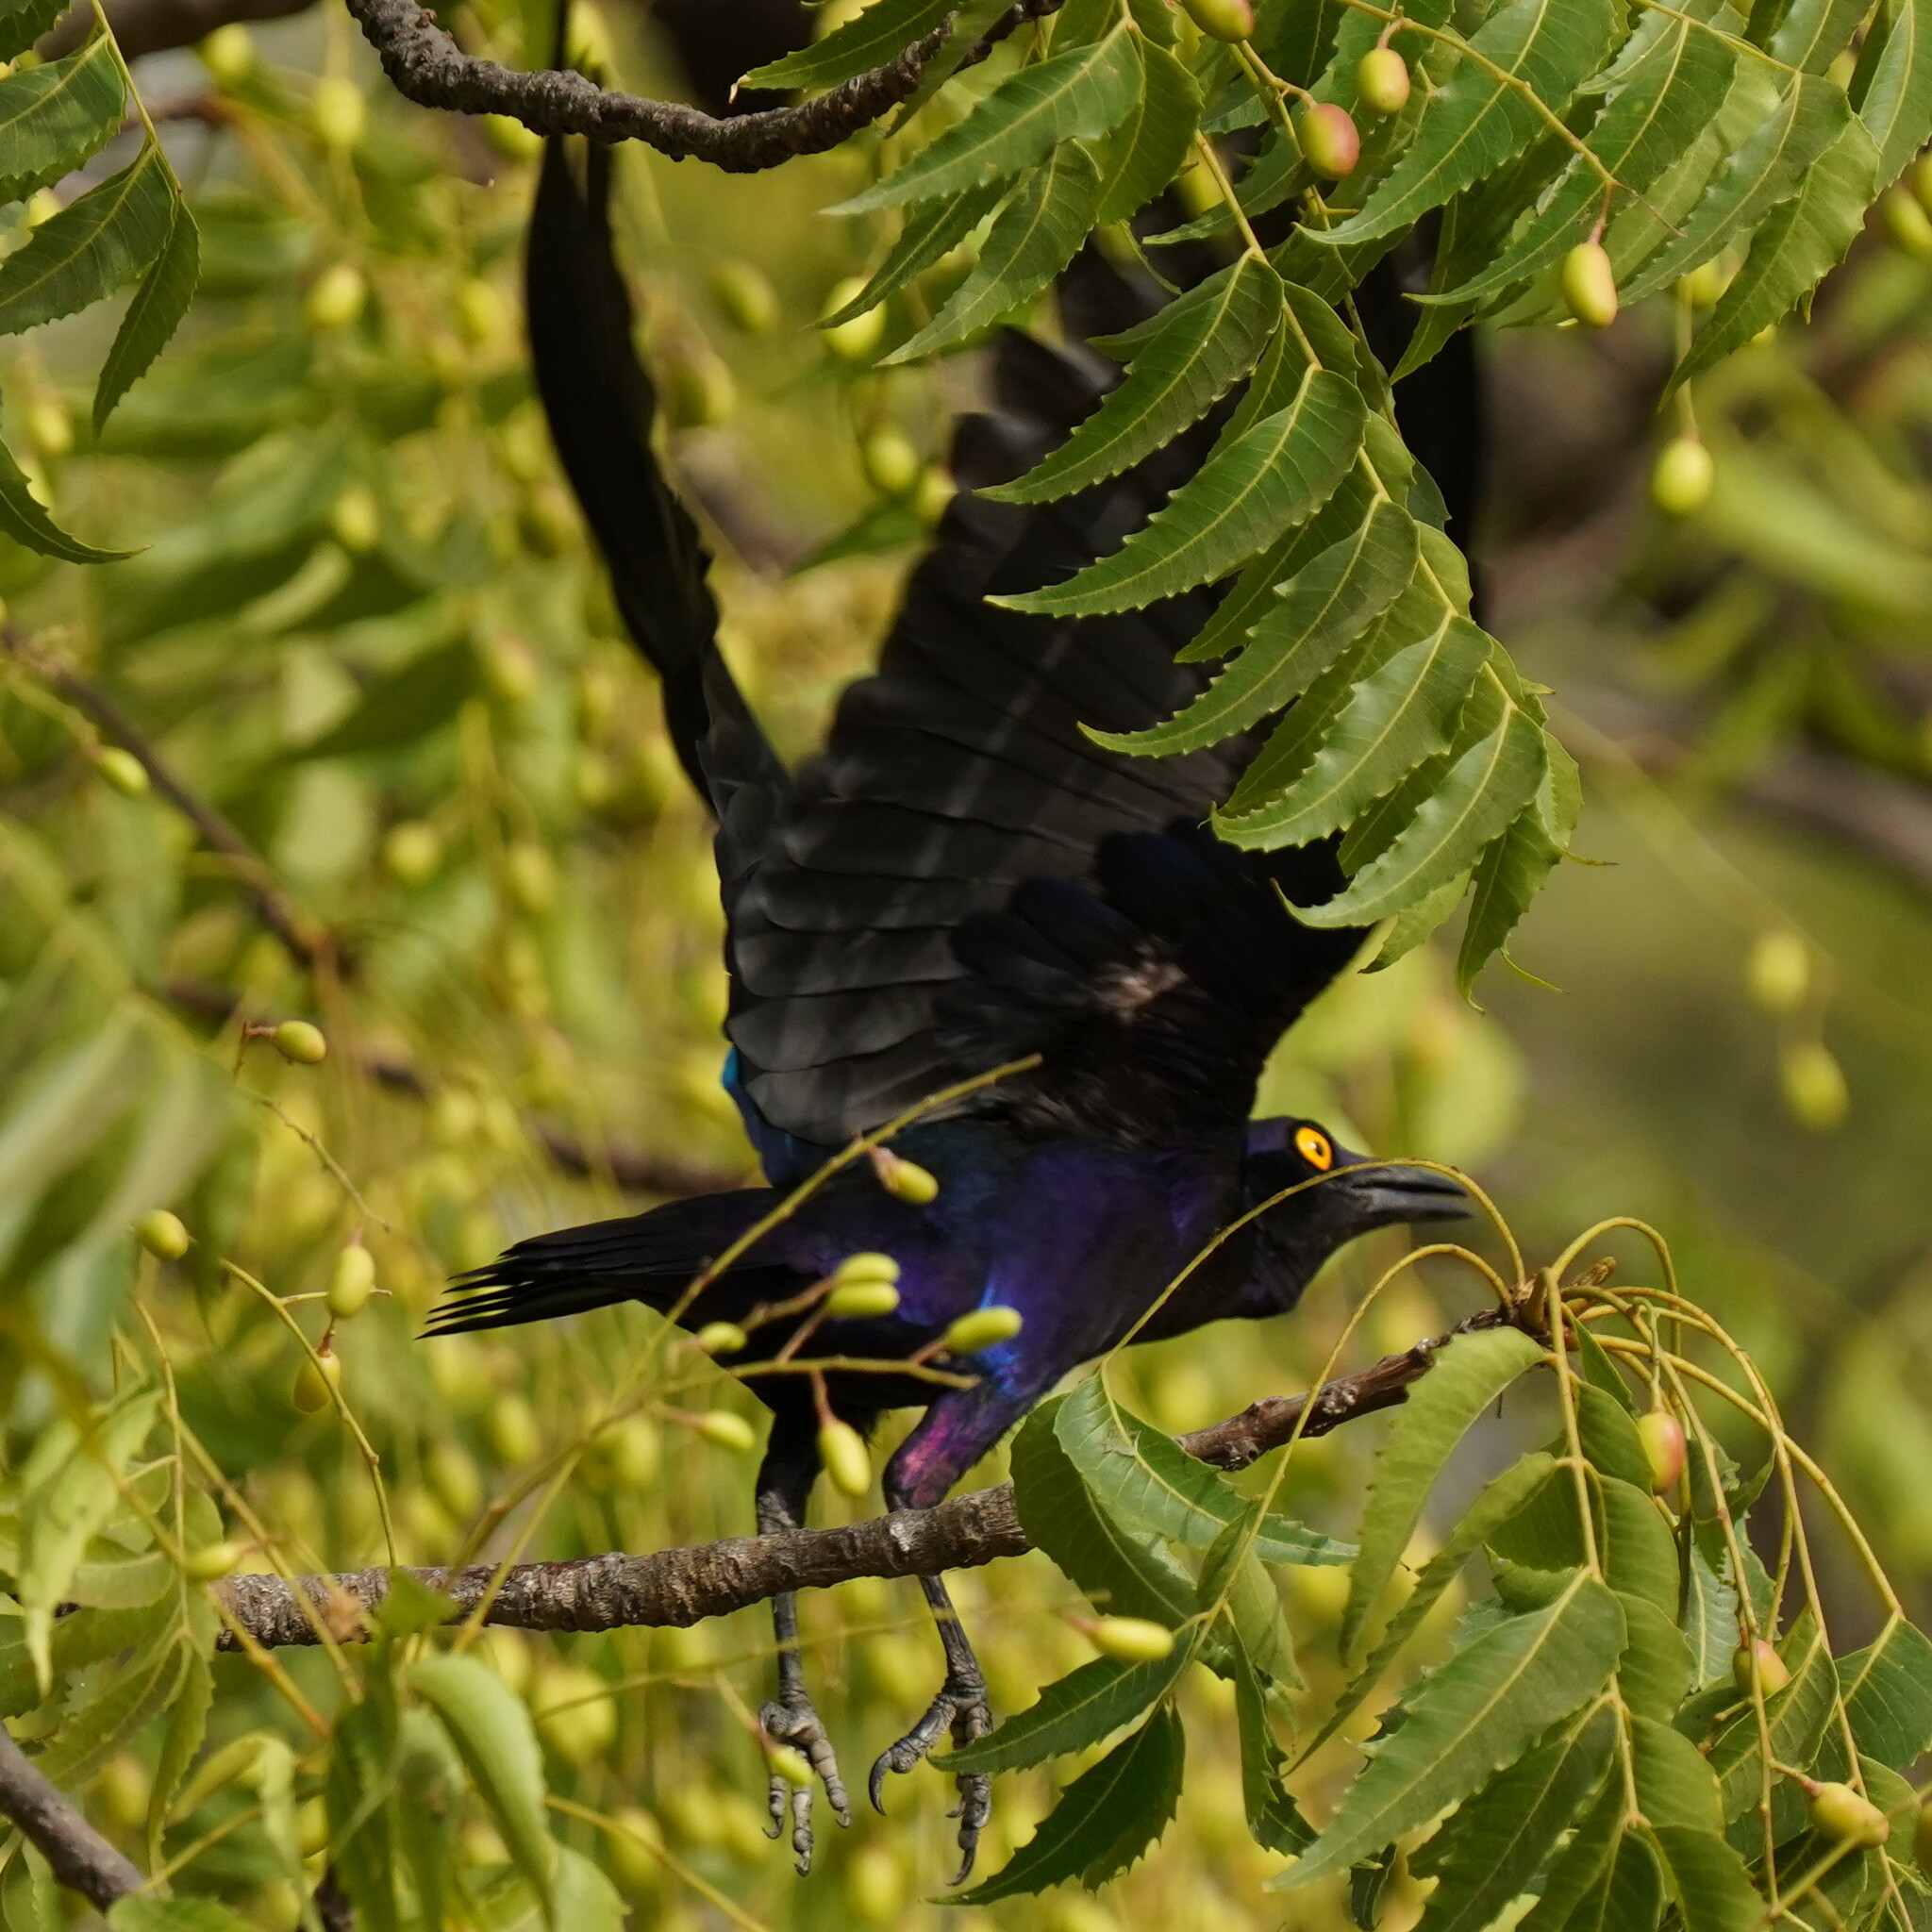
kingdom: Animalia
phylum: Chordata
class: Aves
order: Passeriformes
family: Sturnidae
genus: Lamprotornis
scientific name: Lamprotornis purpureus
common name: Purple starling
